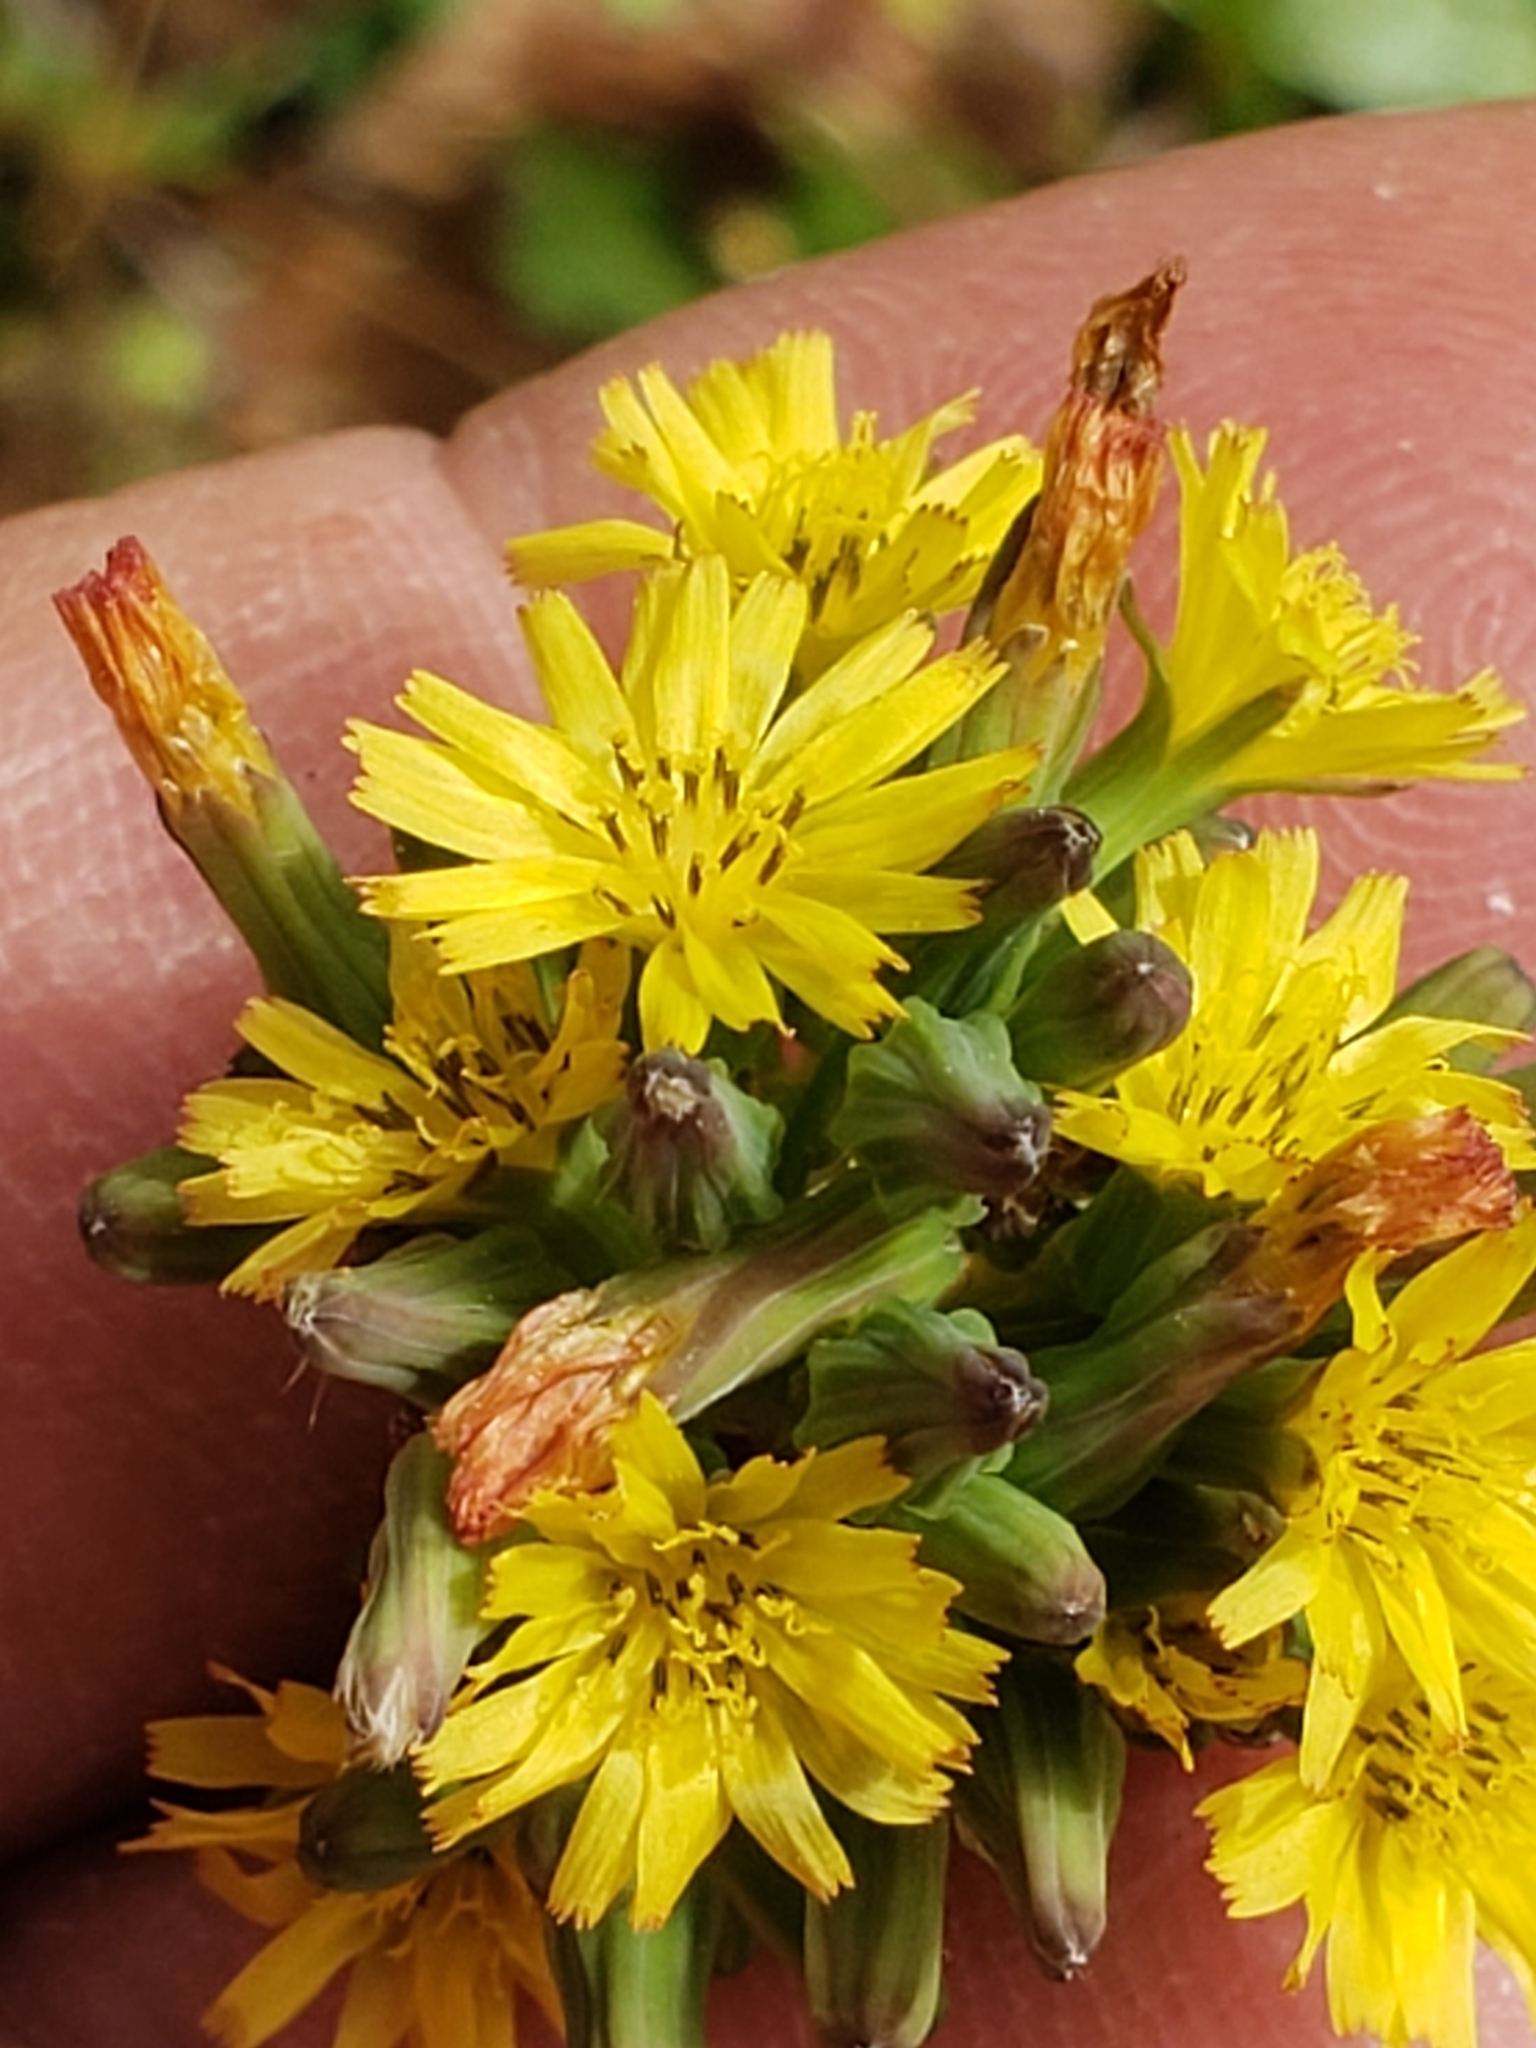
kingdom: Plantae
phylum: Tracheophyta
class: Magnoliopsida
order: Asterales
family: Asteraceae
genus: Youngia
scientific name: Youngia japonica
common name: Oriental false hawksbeard
